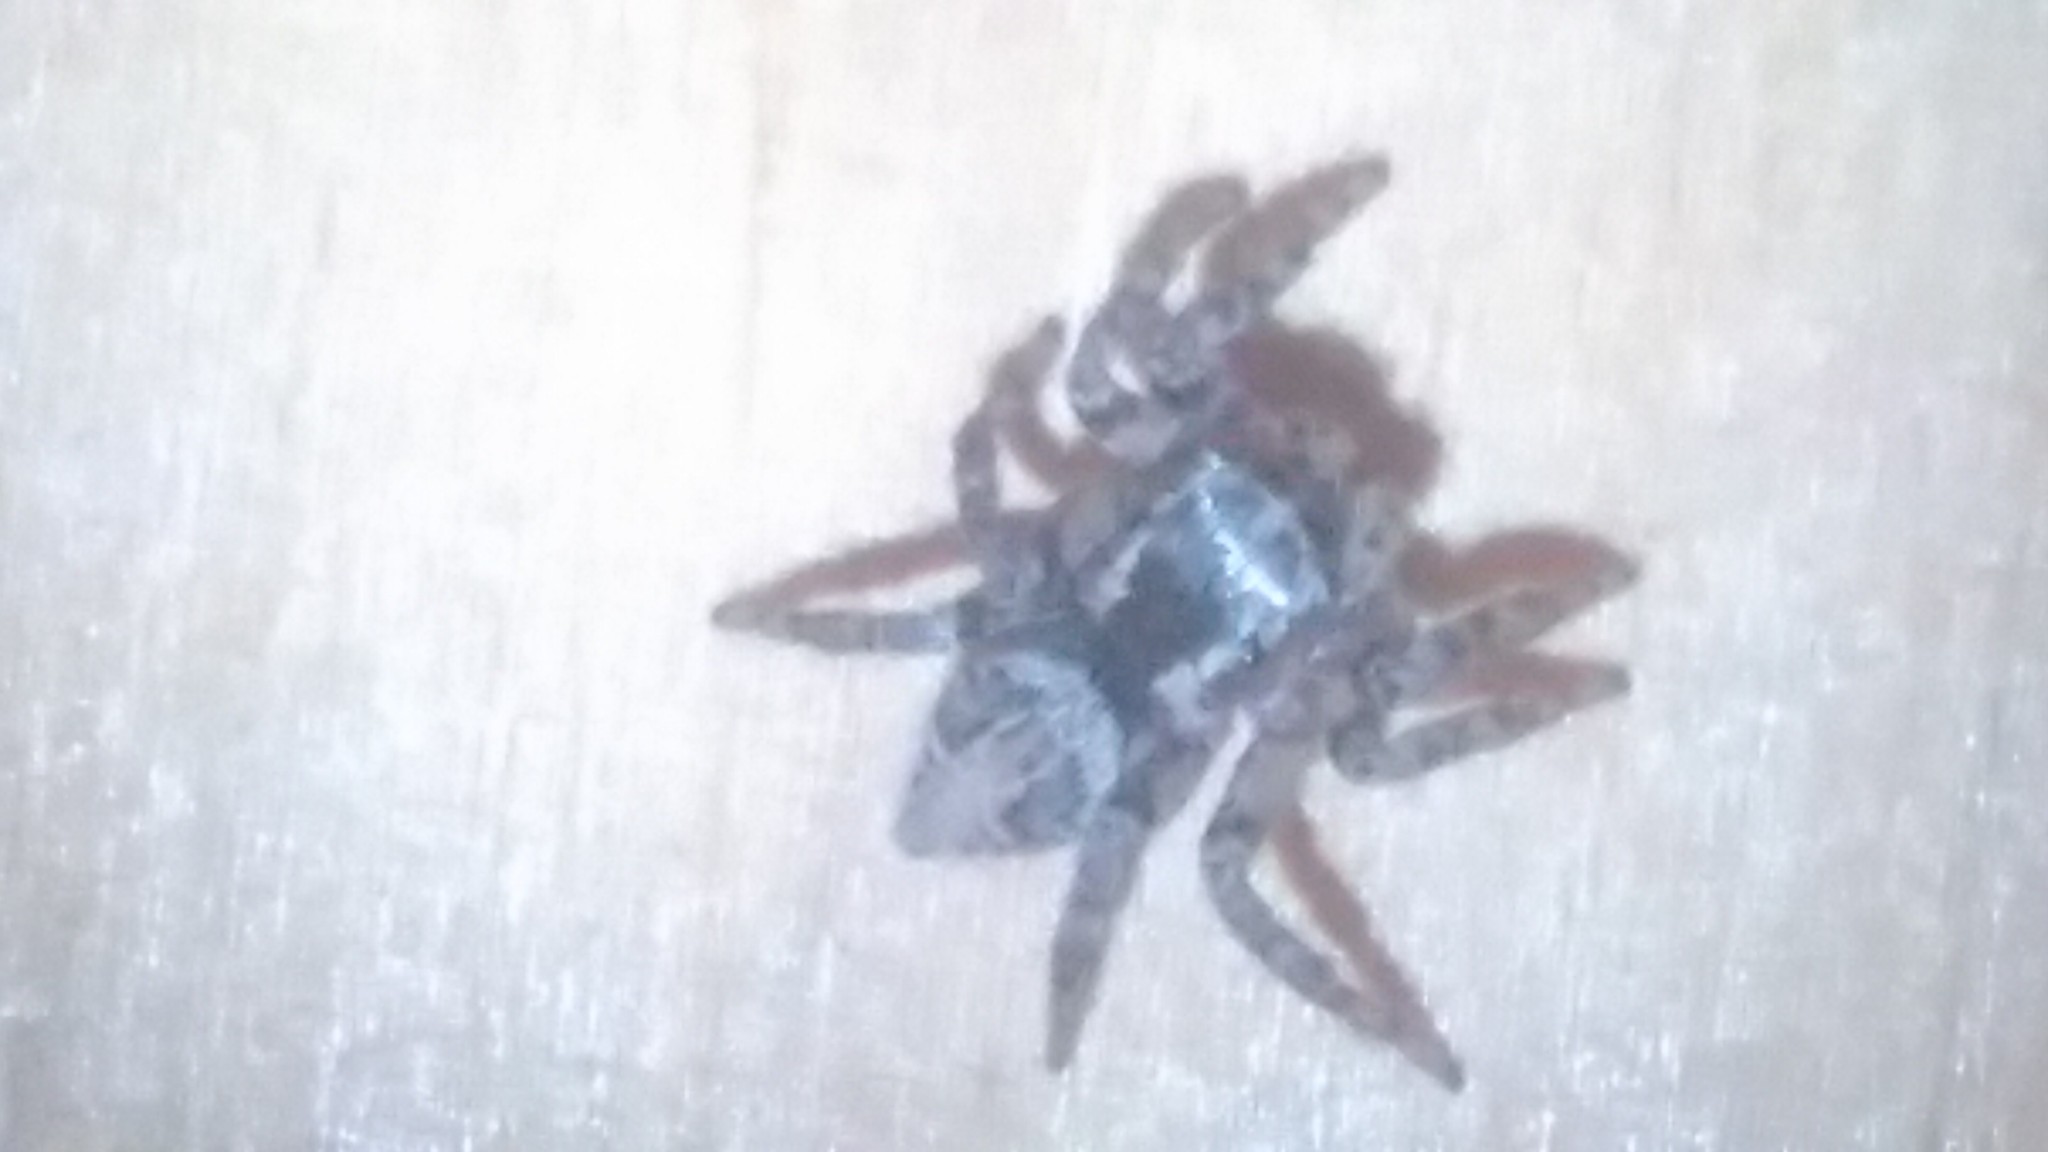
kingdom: Animalia
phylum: Arthropoda
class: Arachnida
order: Araneae
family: Salticidae
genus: Aphirape
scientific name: Aphirape
